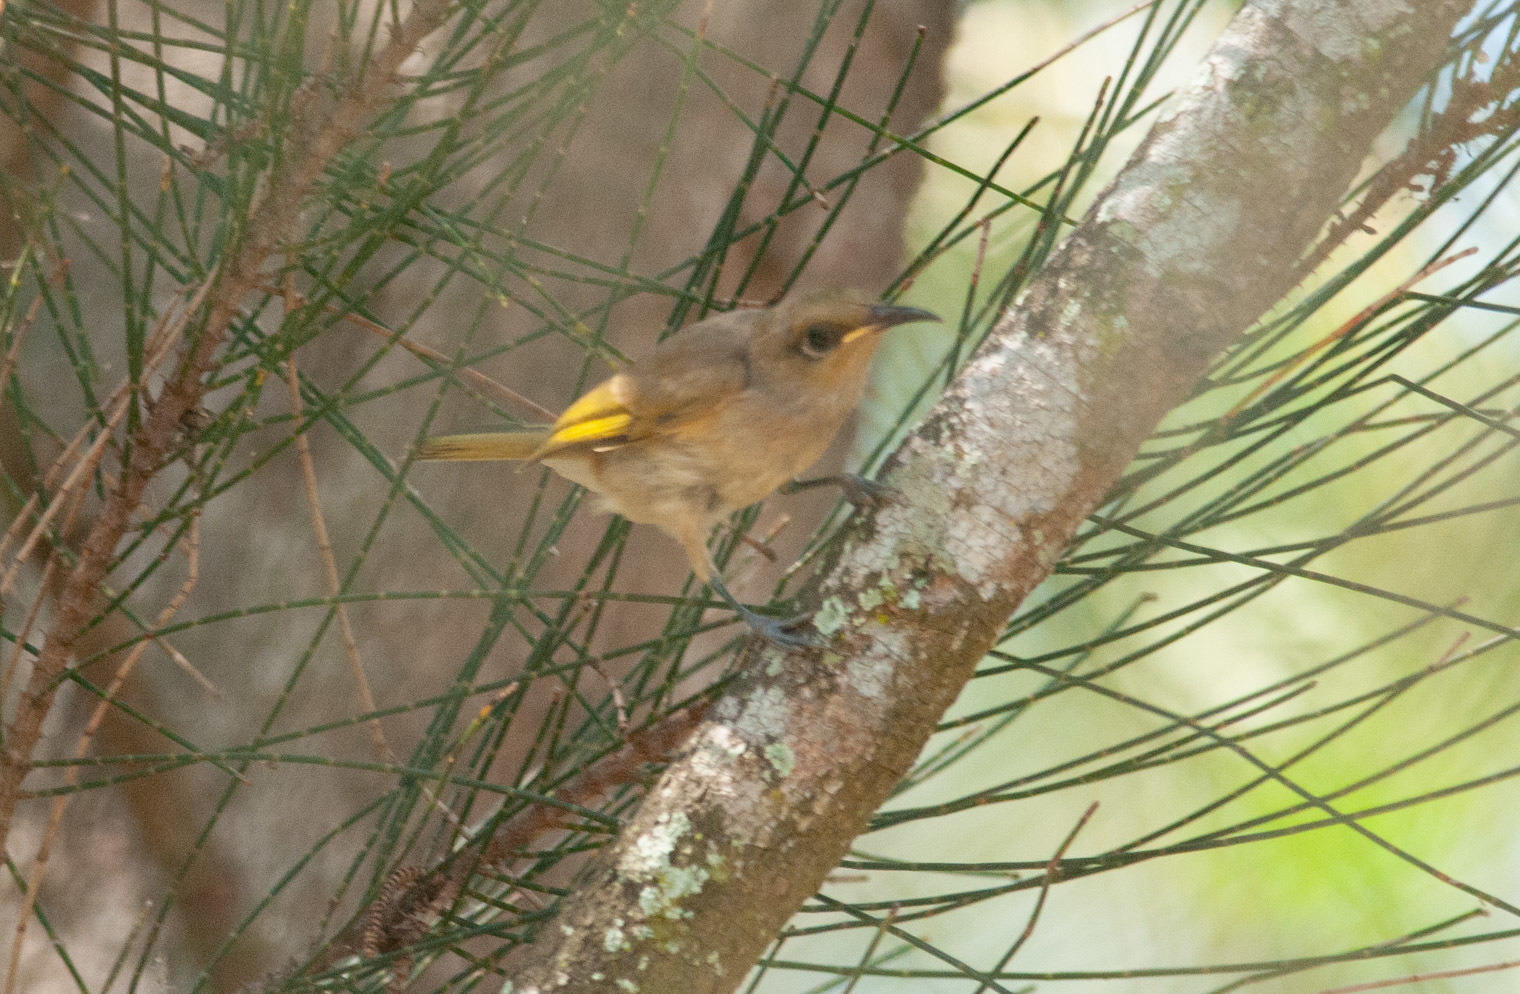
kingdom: Animalia
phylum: Chordata
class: Aves
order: Passeriformes
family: Meliphagidae
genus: Lichmera
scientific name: Lichmera indistincta
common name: Brown honeyeater
